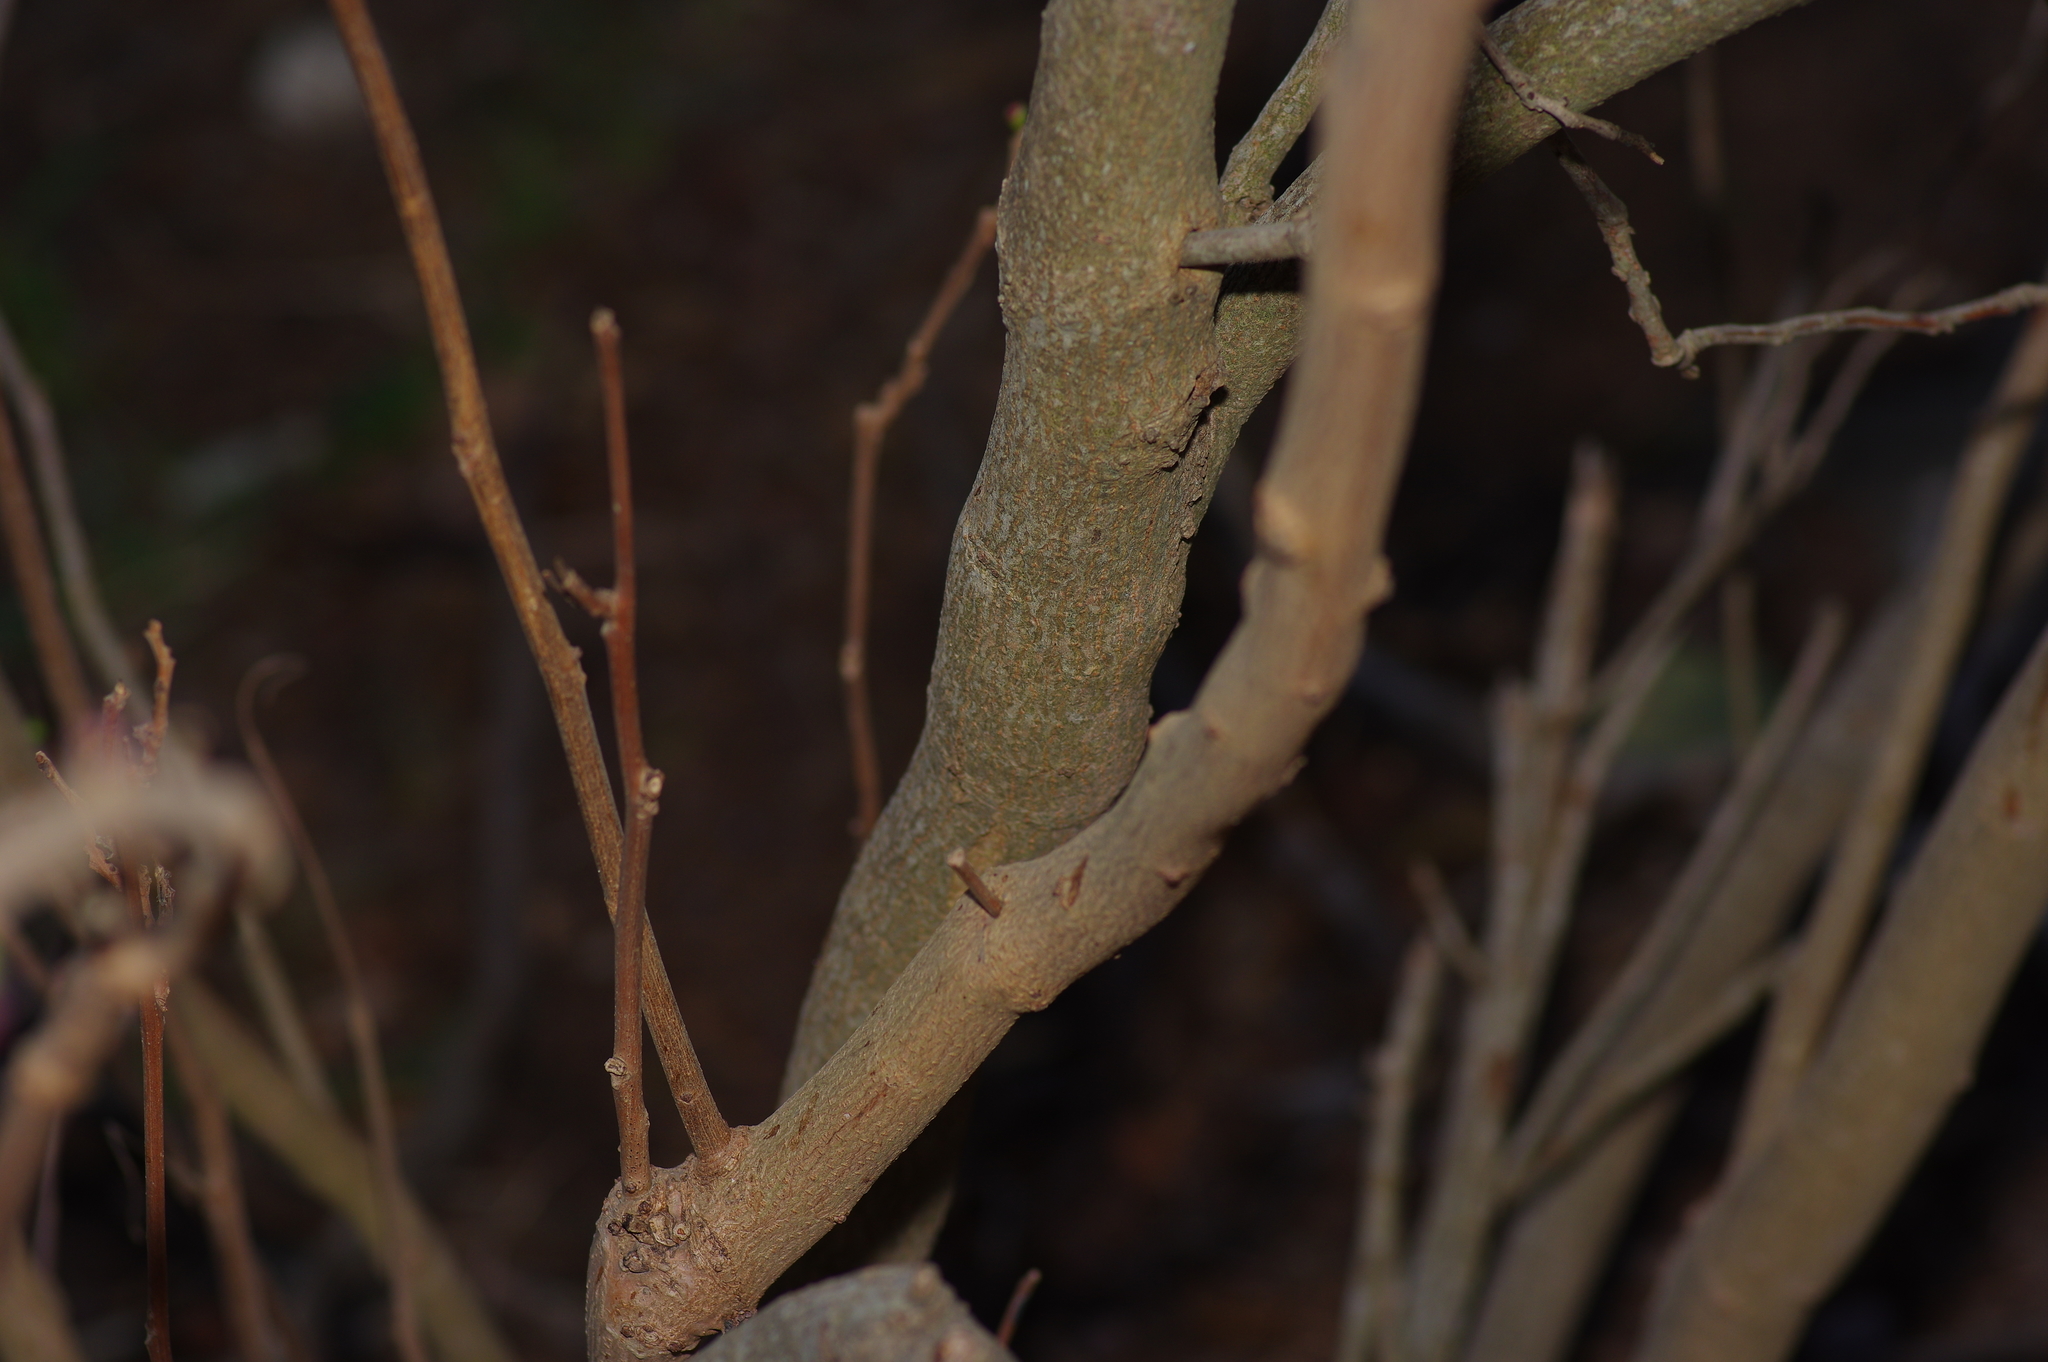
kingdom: Plantae
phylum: Tracheophyta
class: Magnoliopsida
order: Sapindales
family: Sapindaceae
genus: Ungnadia
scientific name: Ungnadia speciosa
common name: Texas-buckeye
